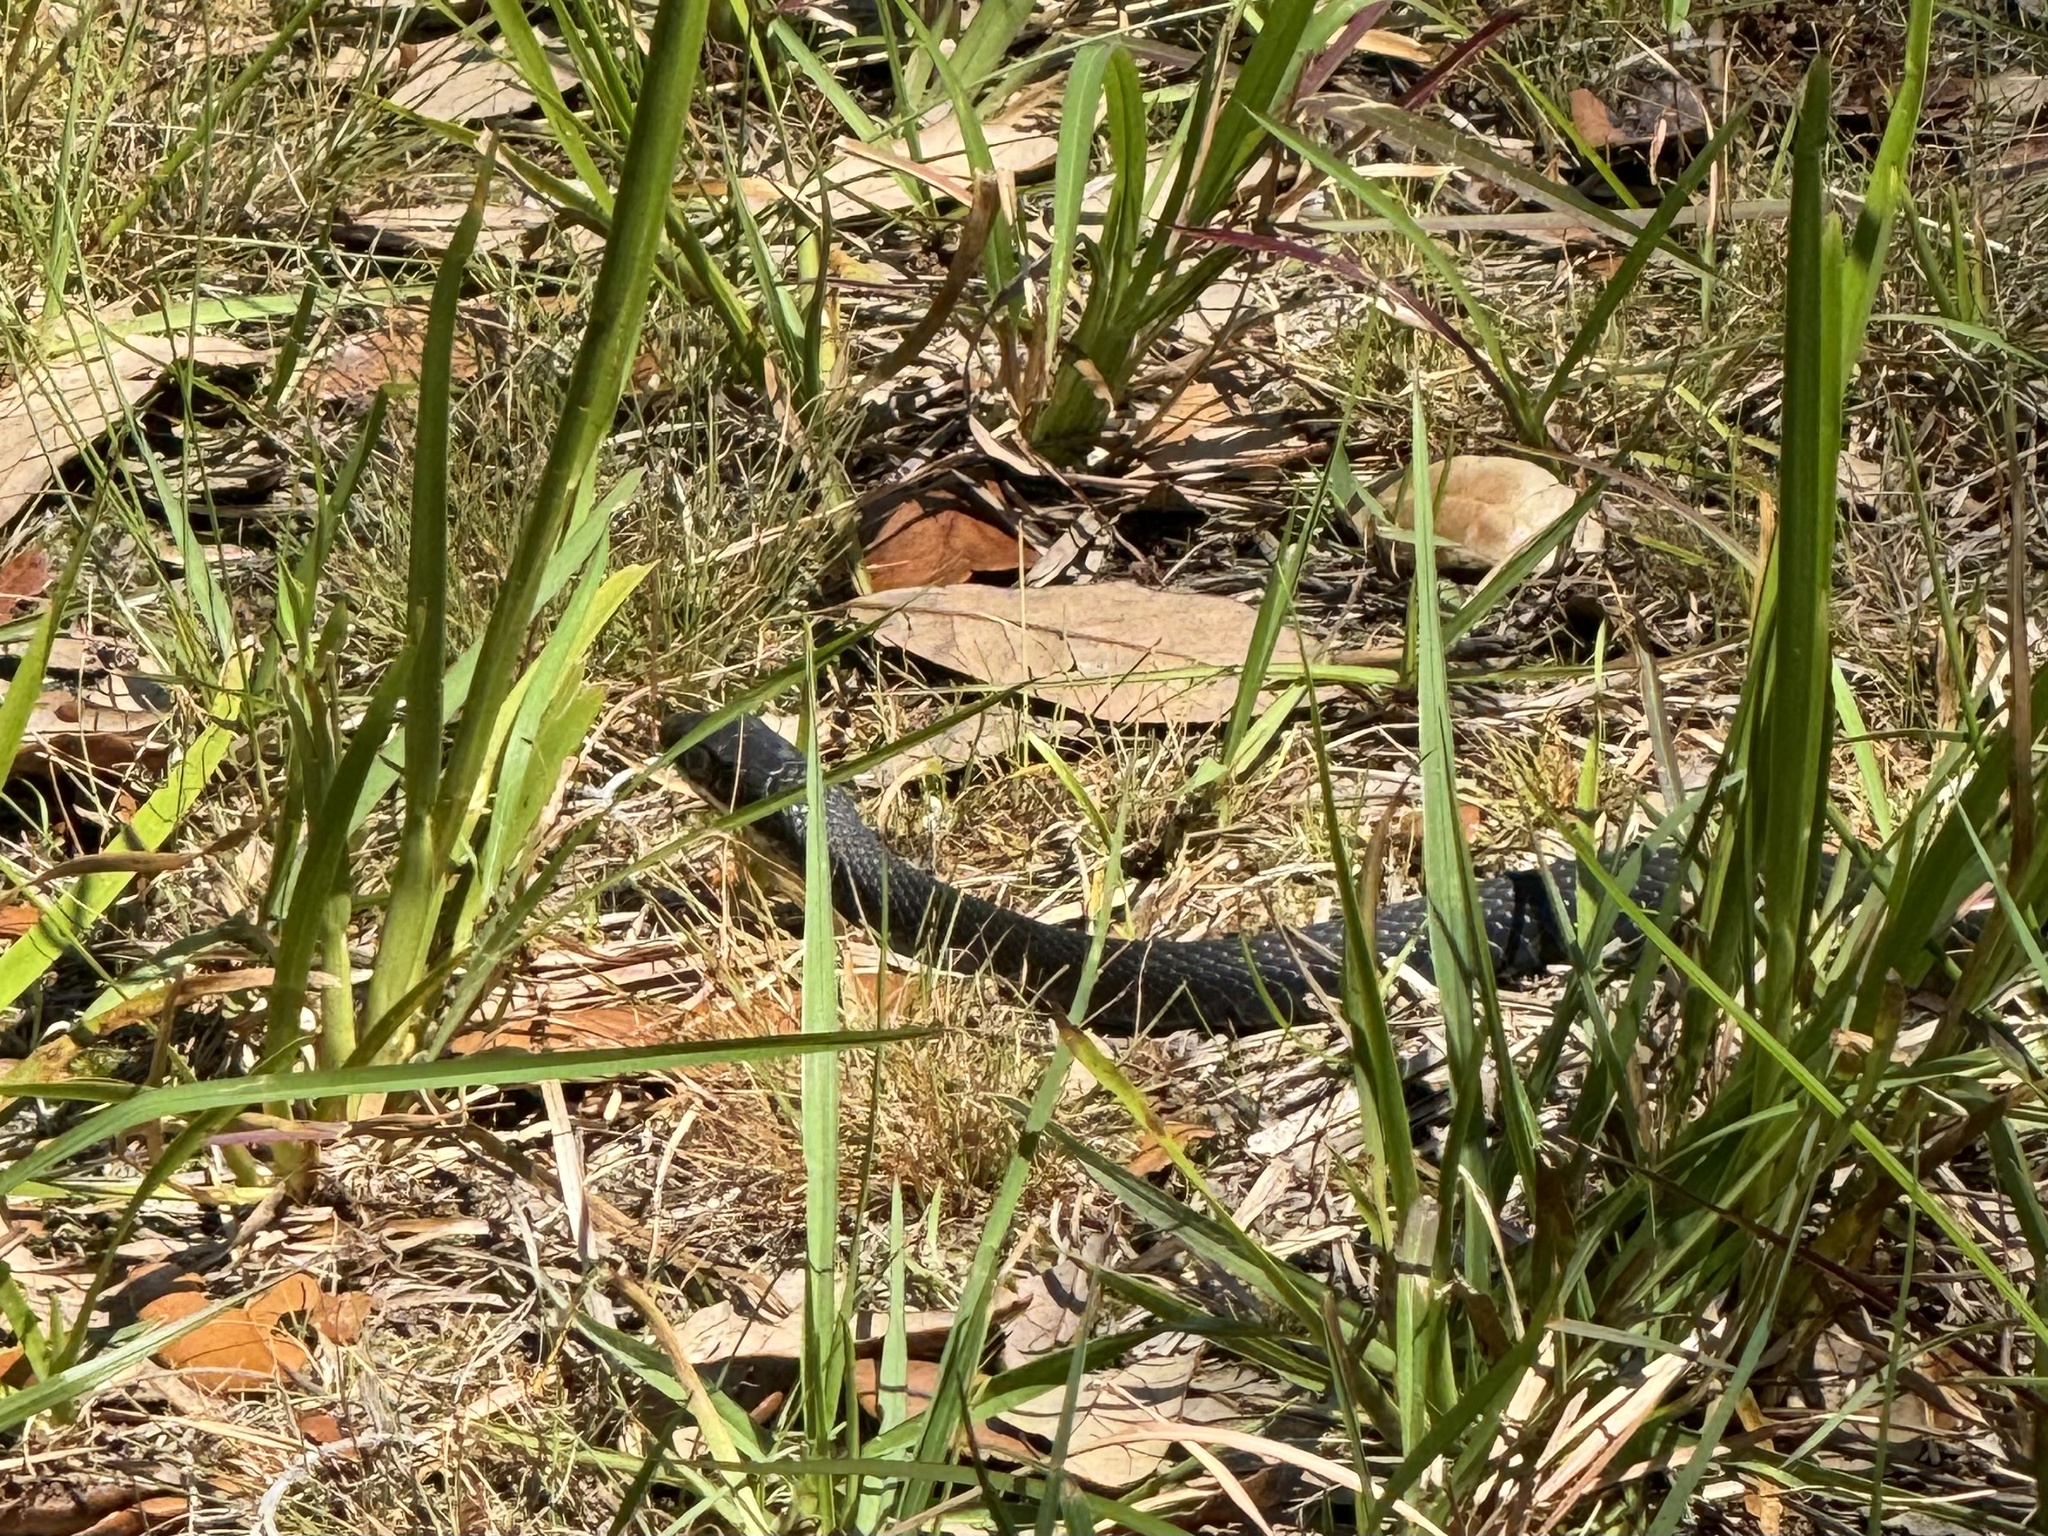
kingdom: Animalia
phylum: Chordata
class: Squamata
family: Colubridae
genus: Coluber
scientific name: Coluber constrictor
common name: Eastern racer
